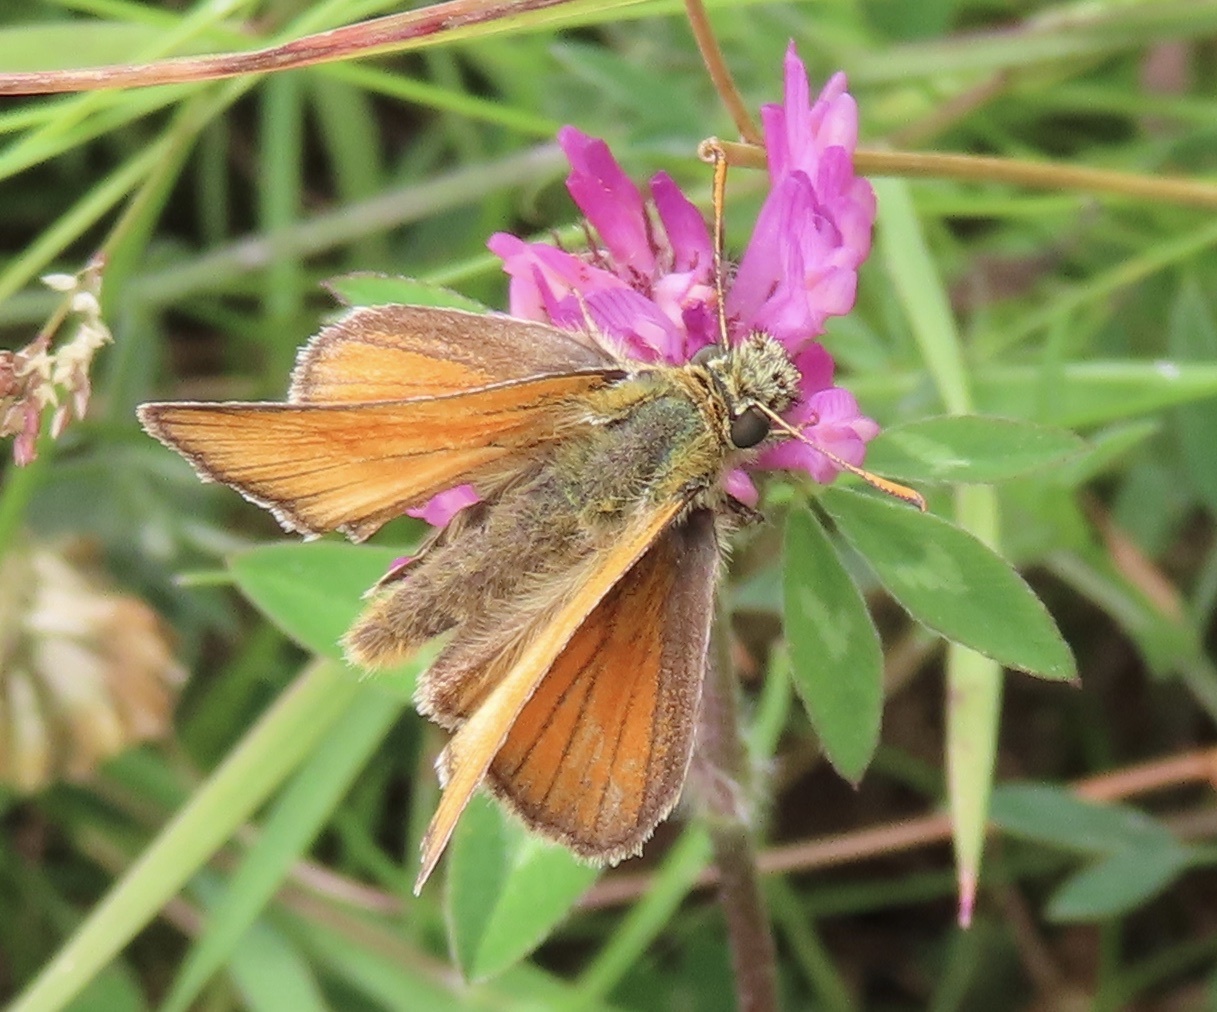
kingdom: Animalia
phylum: Arthropoda
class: Insecta
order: Lepidoptera
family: Hesperiidae
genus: Thymelicus
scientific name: Thymelicus sylvestris
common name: Small skipper
